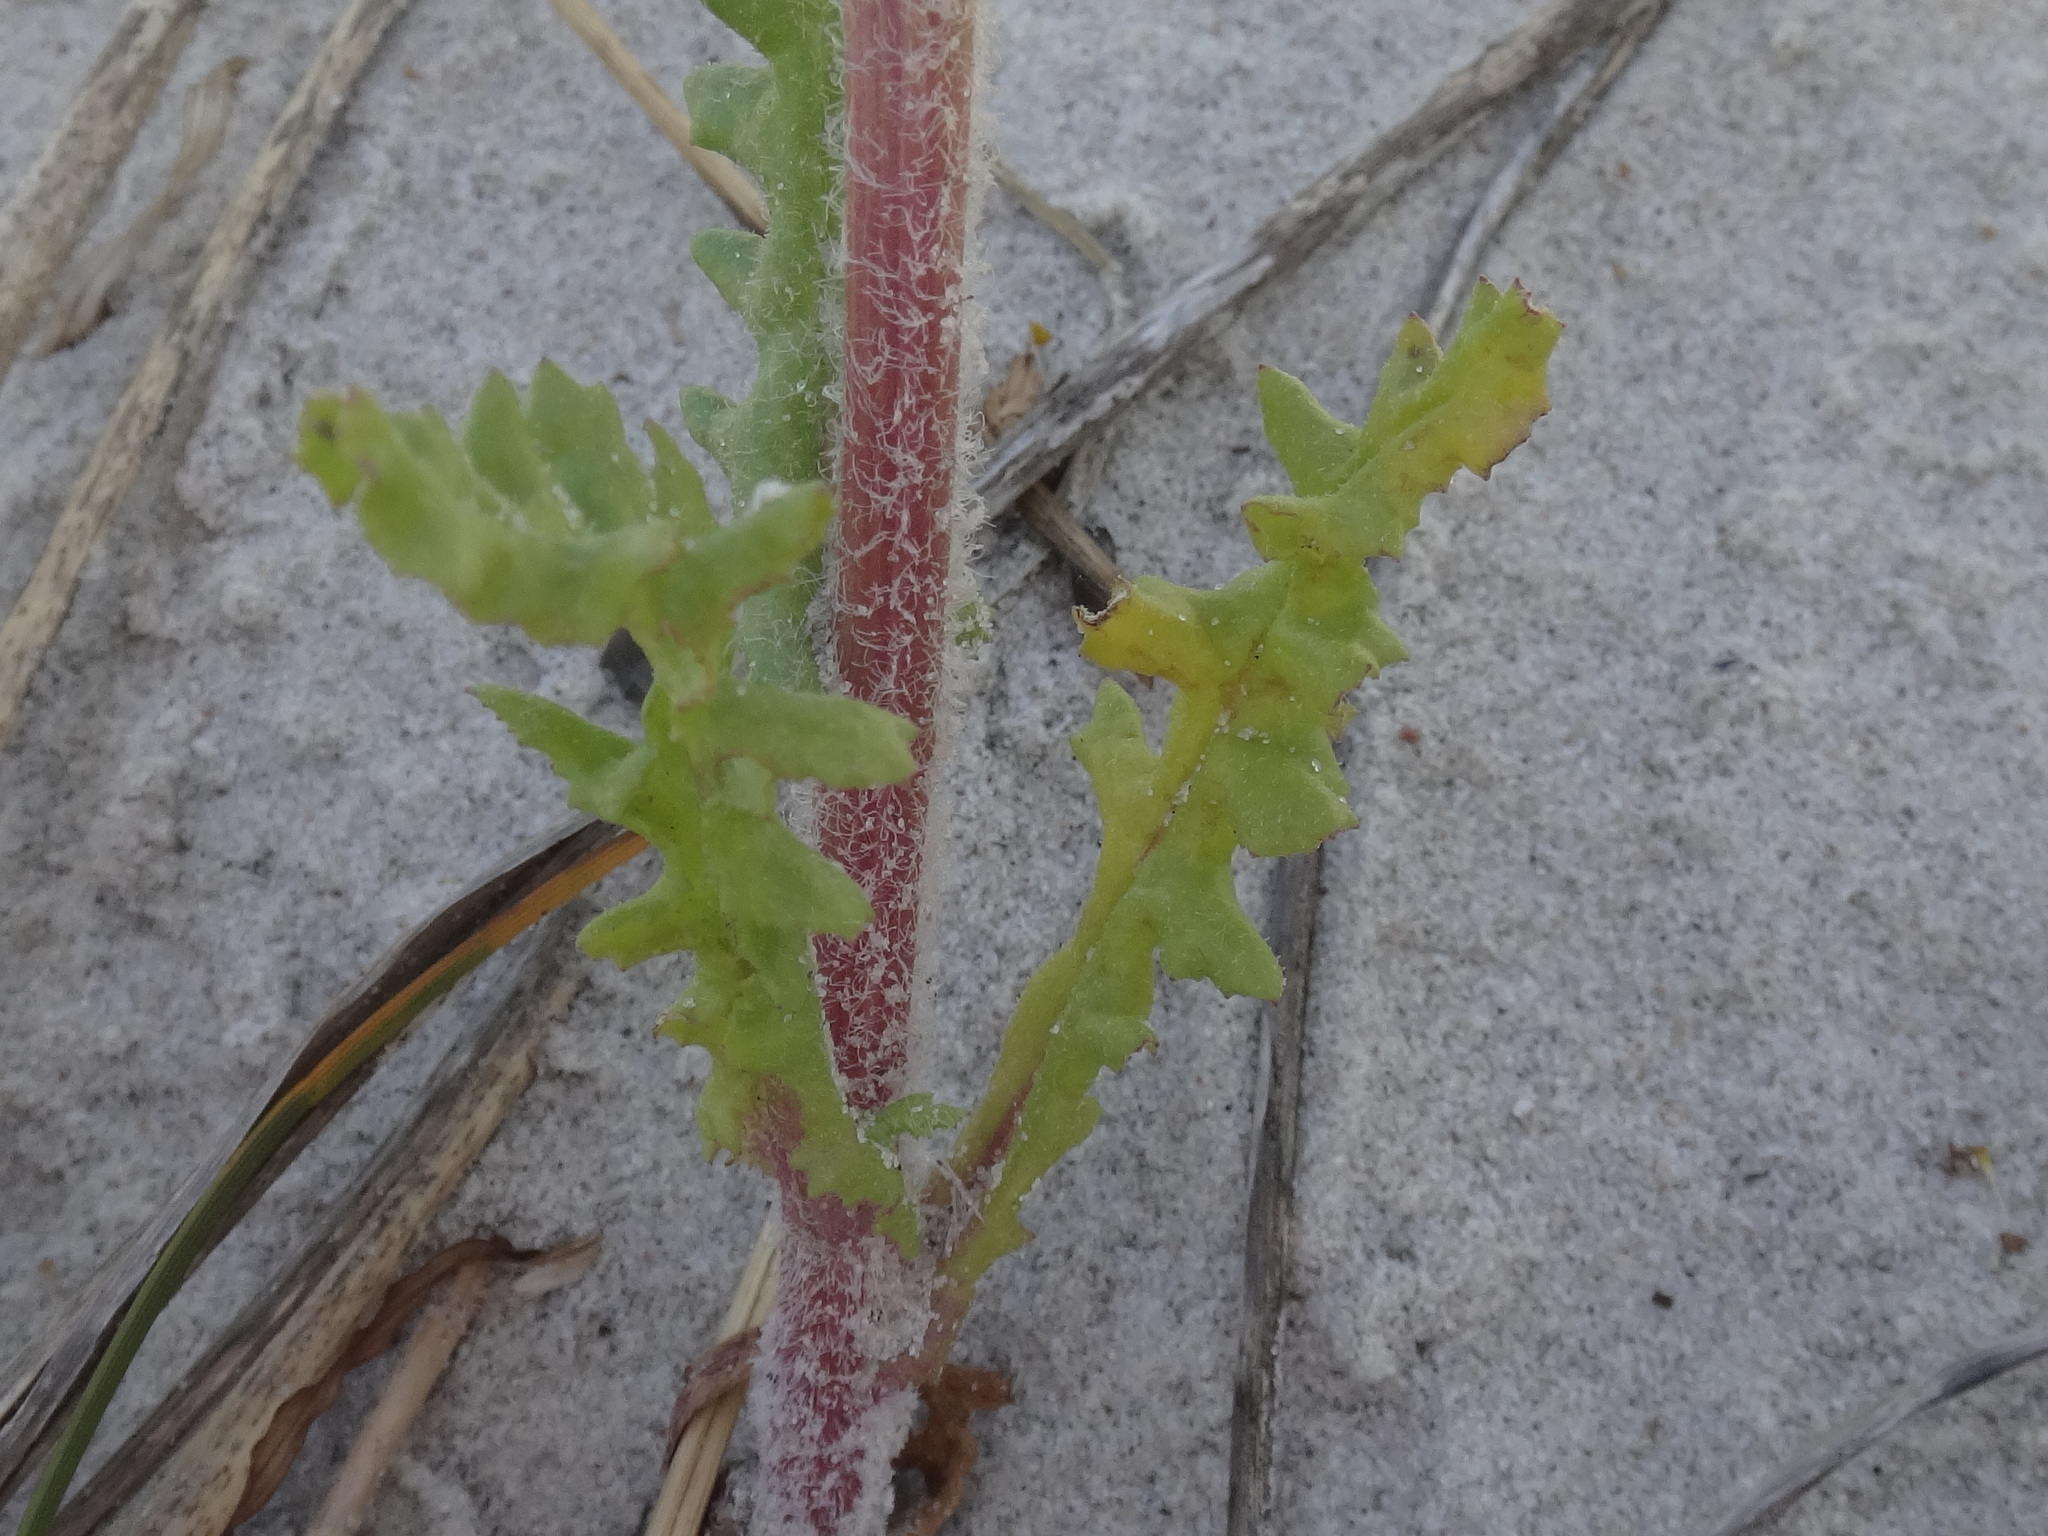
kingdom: Plantae
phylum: Tracheophyta
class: Magnoliopsida
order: Asterales
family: Asteraceae
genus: Senecio
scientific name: Senecio vernalis
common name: Eastern groundsel
